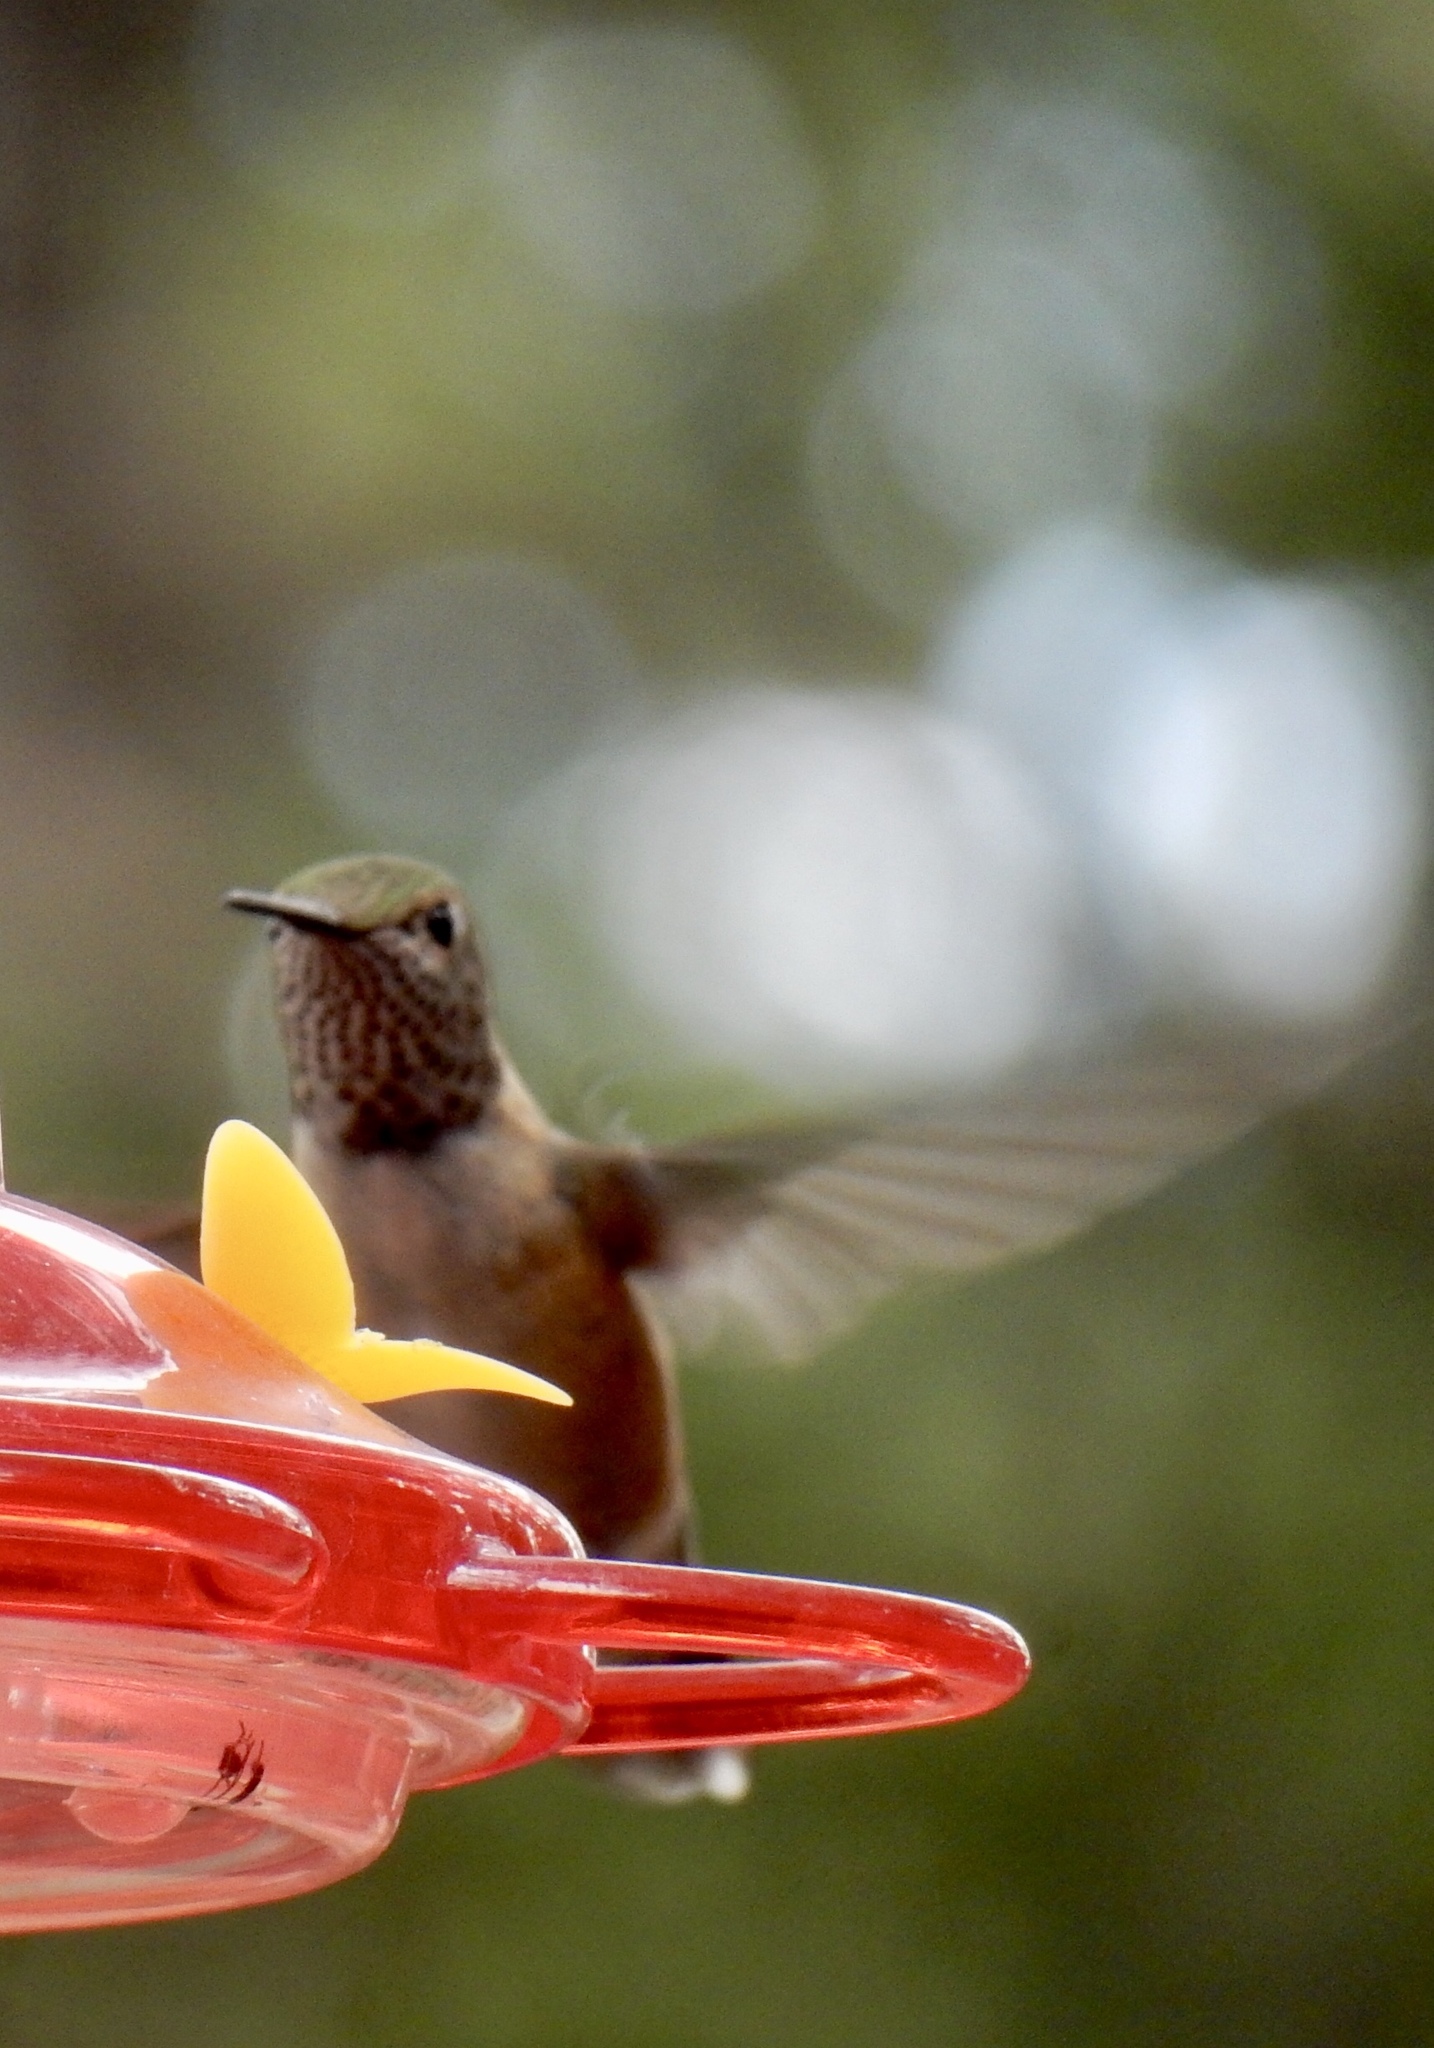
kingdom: Animalia
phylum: Chordata
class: Aves
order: Apodiformes
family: Trochilidae
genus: Selasphorus
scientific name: Selasphorus platycercus
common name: Broad-tailed hummingbird
